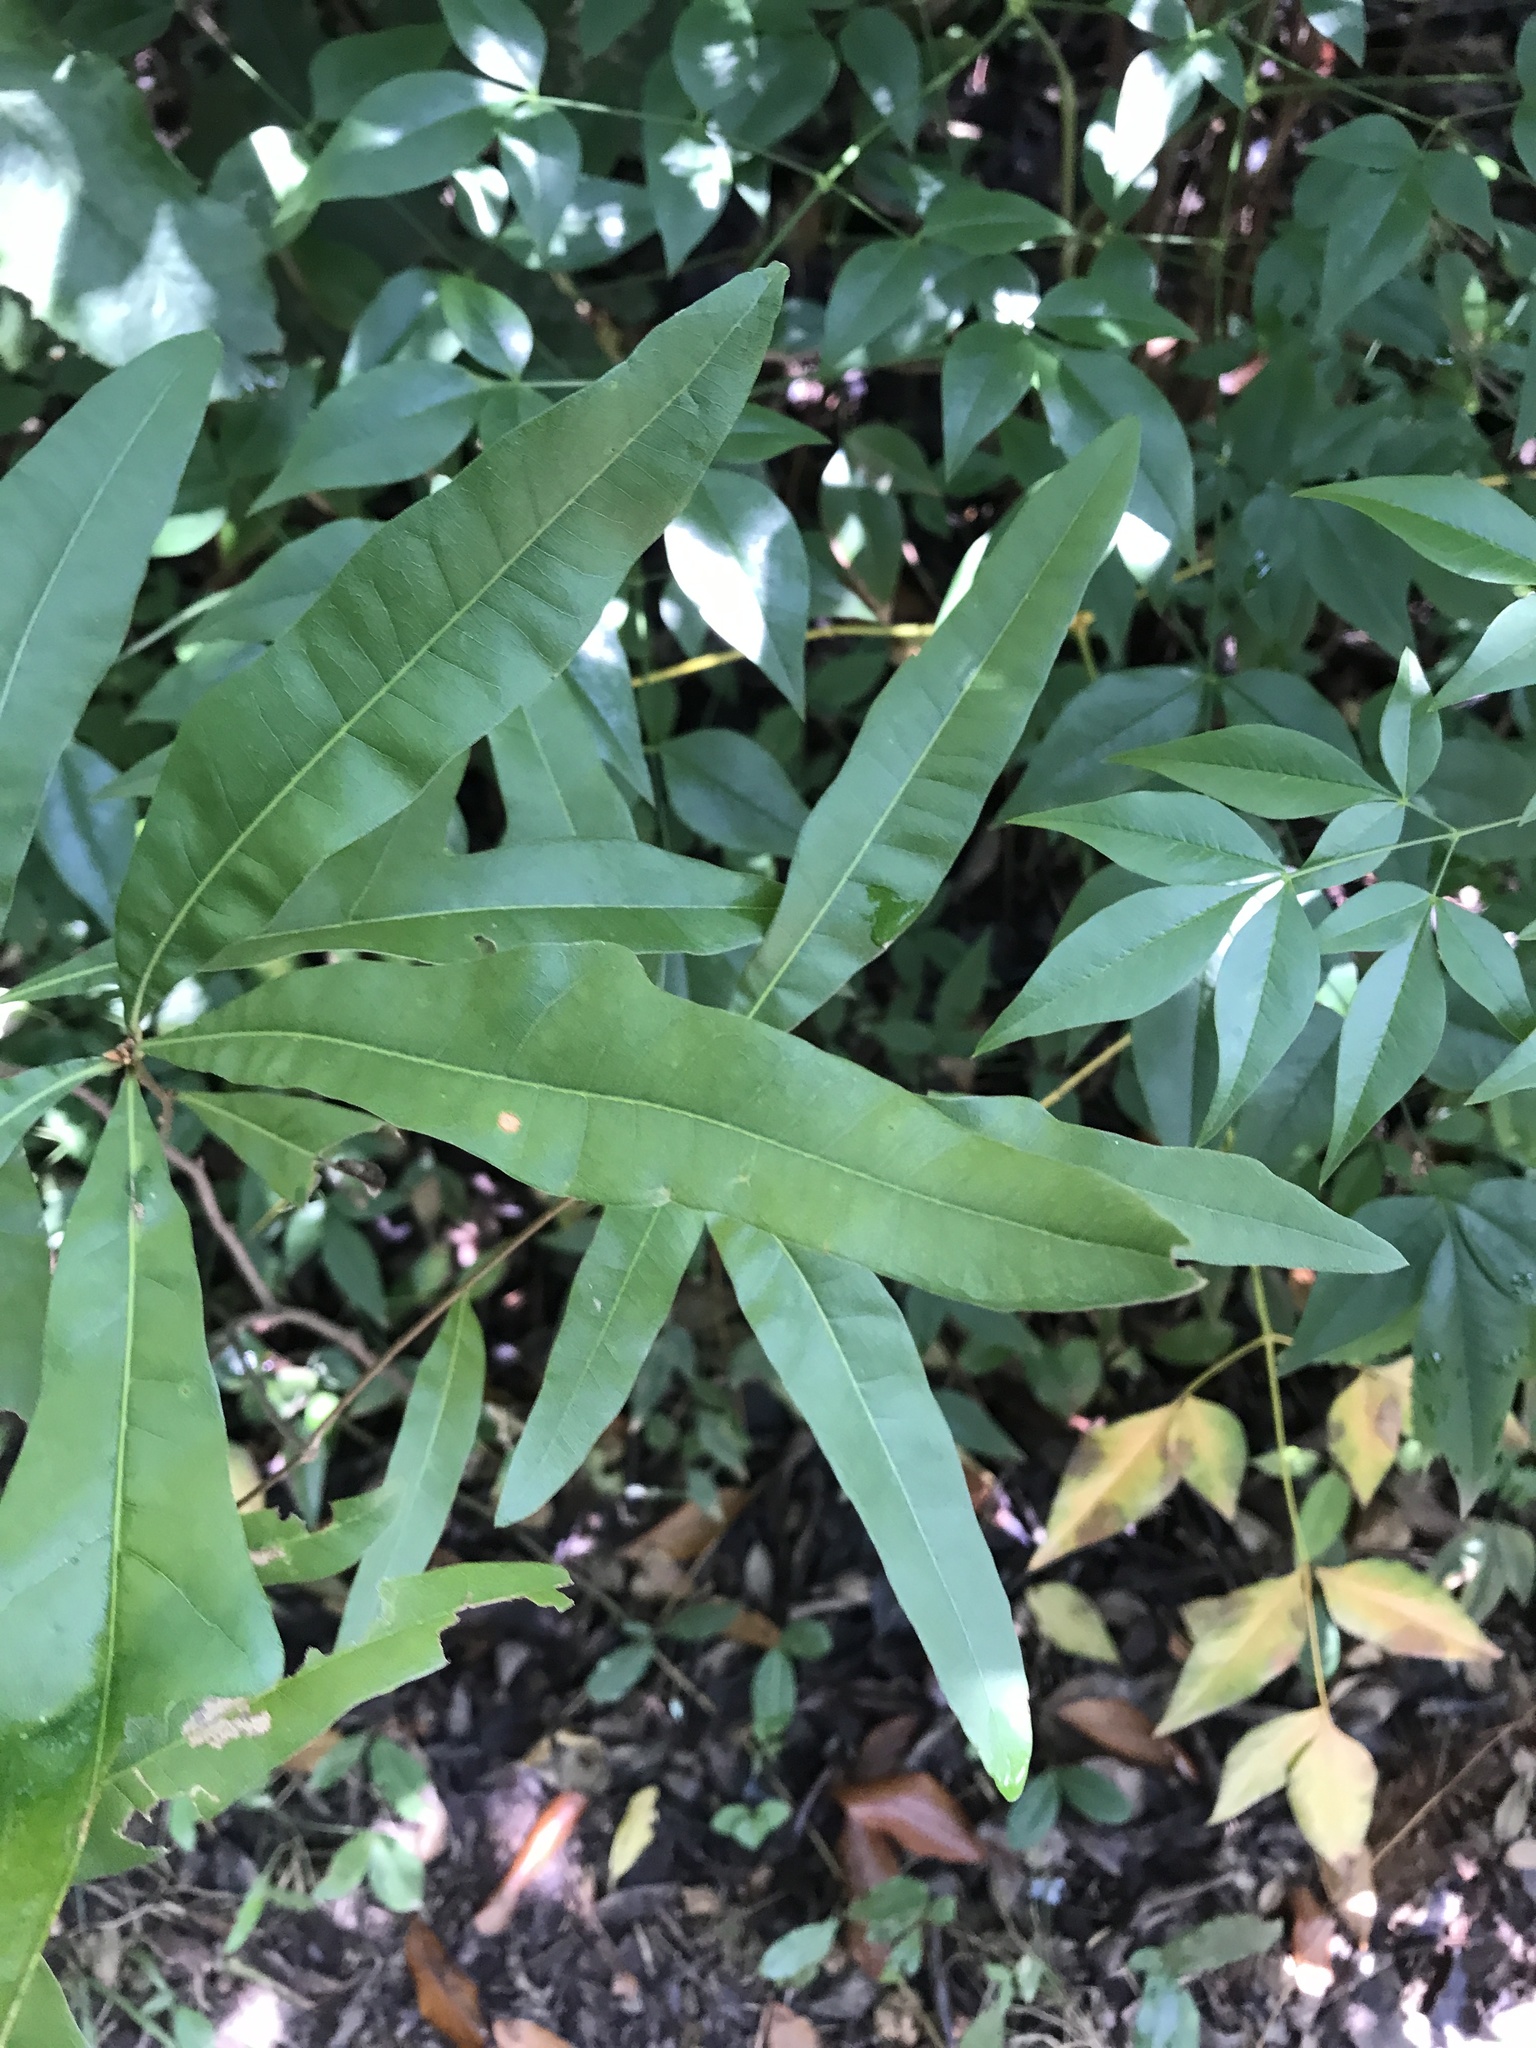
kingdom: Plantae
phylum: Tracheophyta
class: Magnoliopsida
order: Fagales
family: Fagaceae
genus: Quercus
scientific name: Quercus nigra
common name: Water oak
